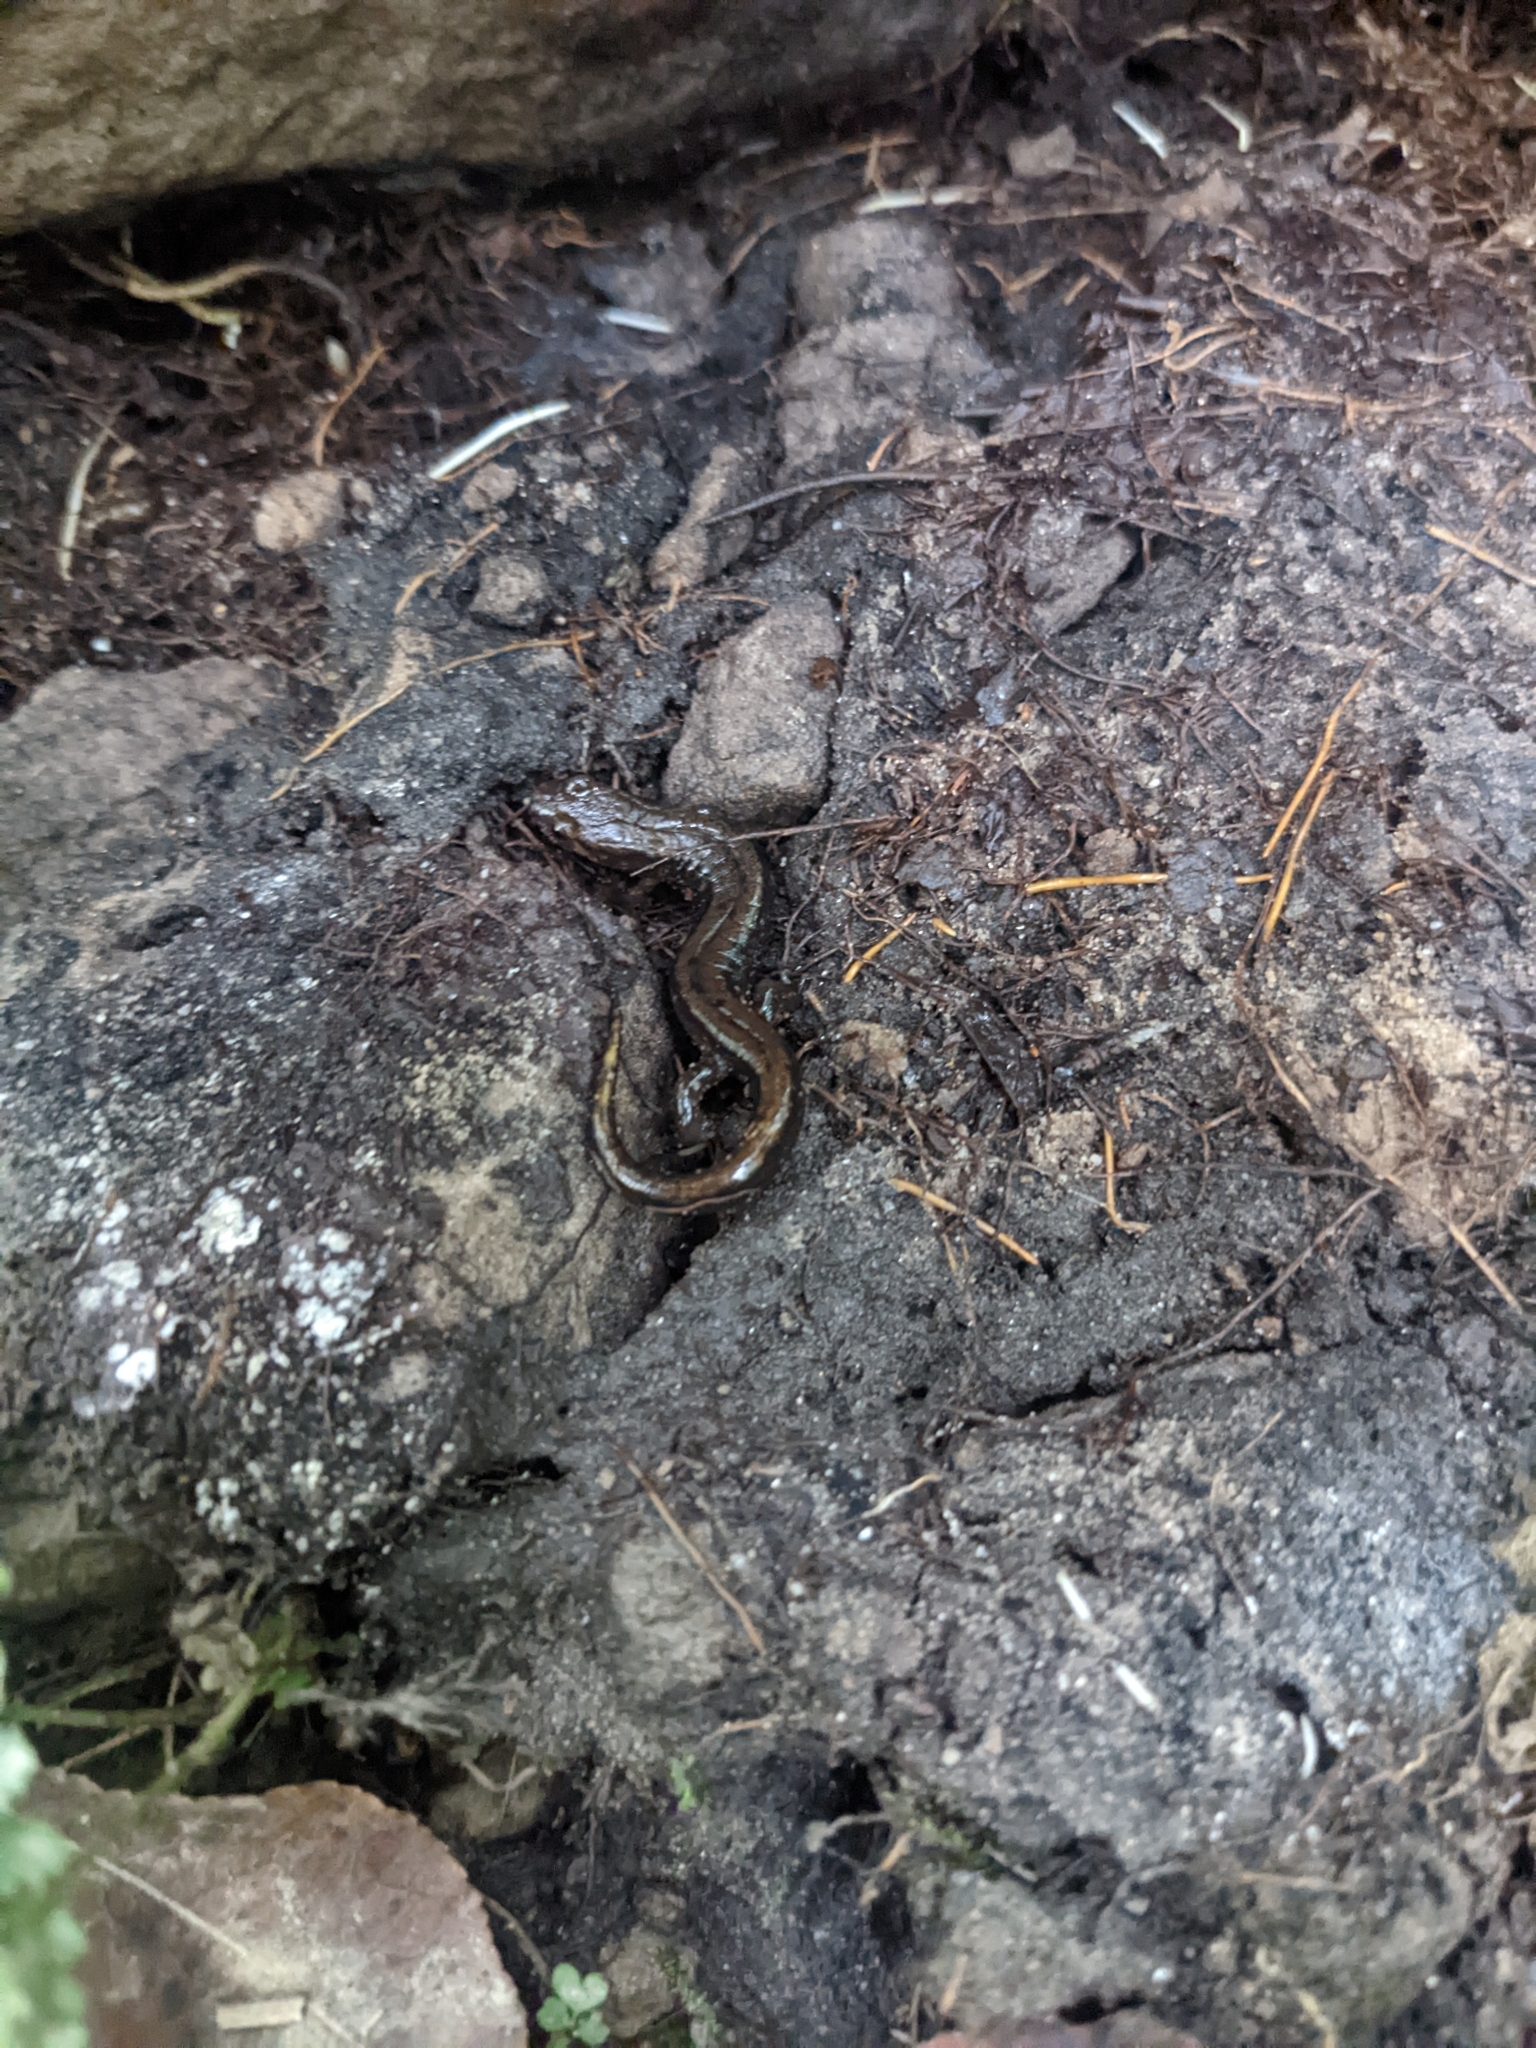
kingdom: Animalia
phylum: Chordata
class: Amphibia
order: Caudata
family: Plethodontidae
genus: Desmognathus
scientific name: Desmognathus ochrophaeus
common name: Allegheny mountain dusky salamander
